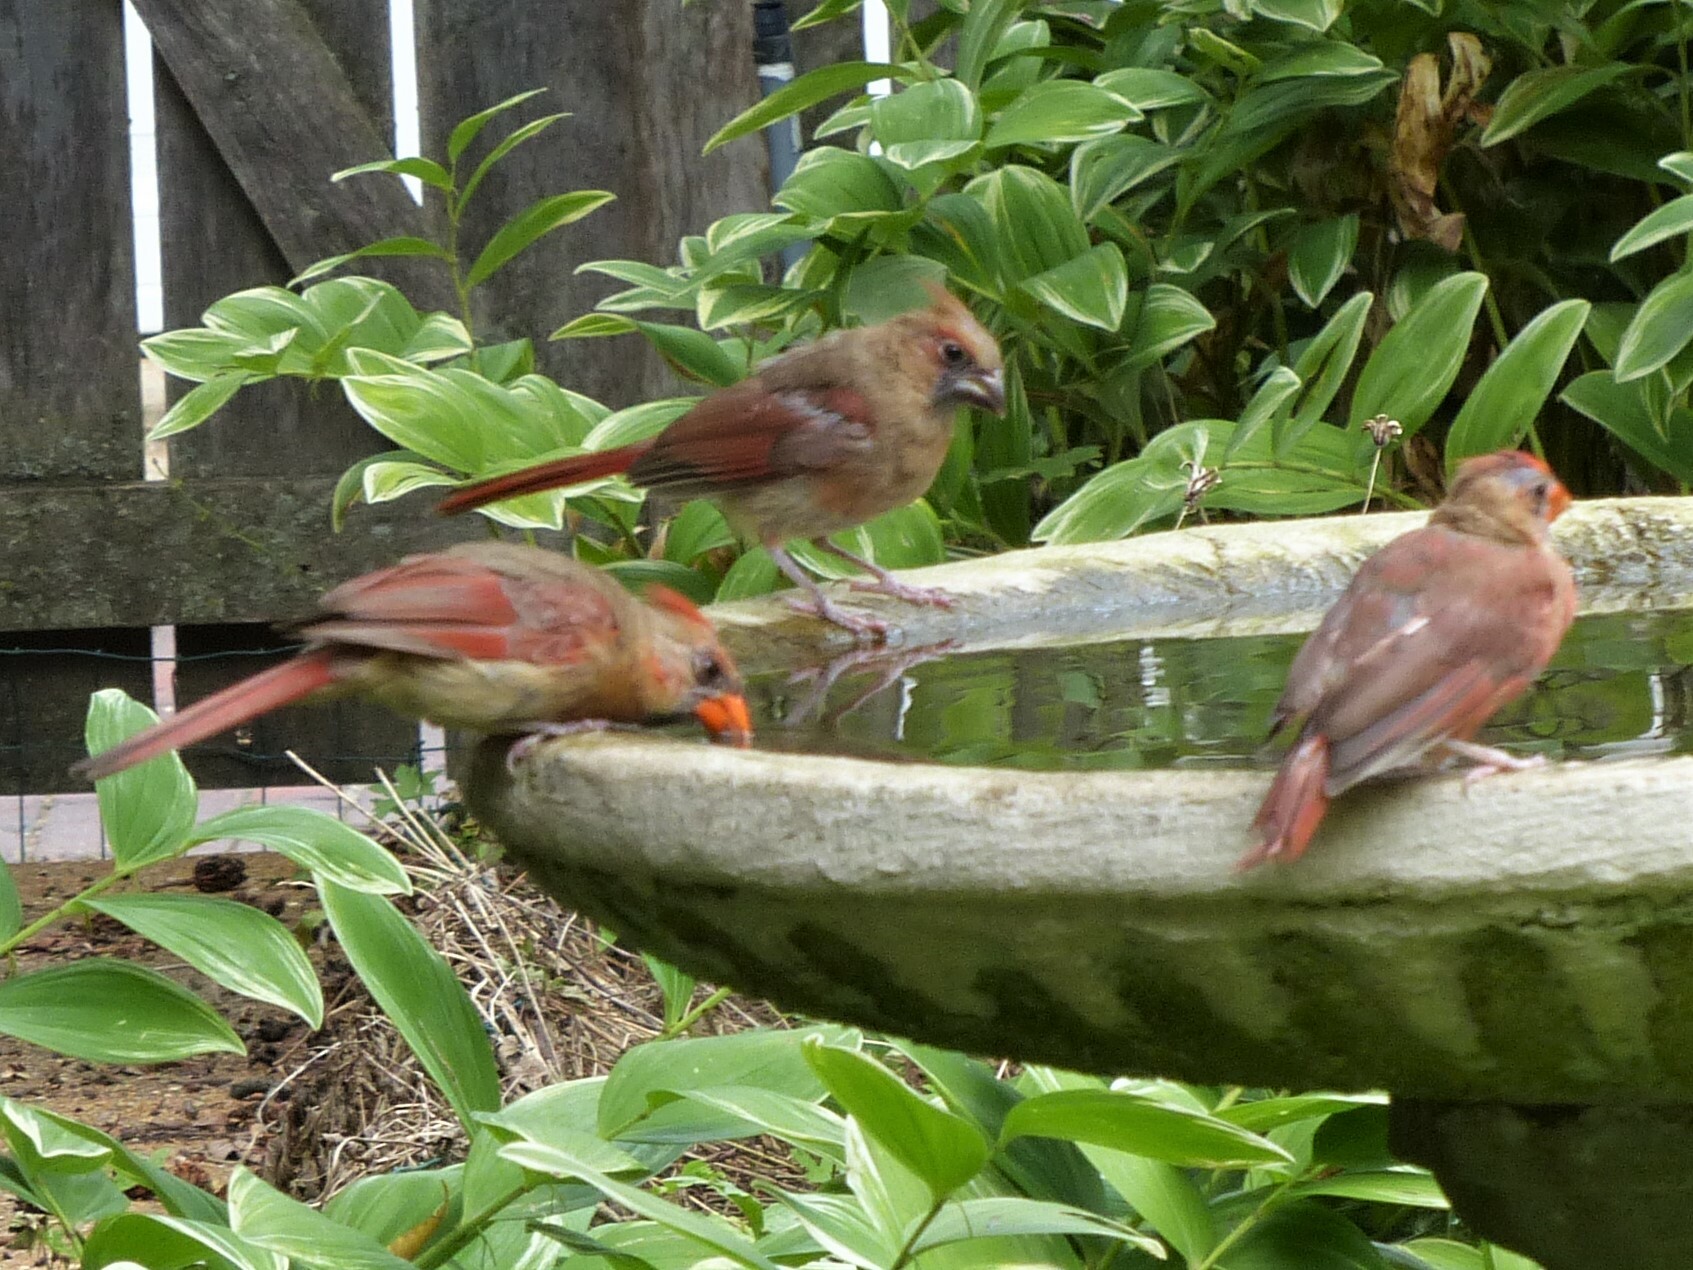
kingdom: Animalia
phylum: Chordata
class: Aves
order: Passeriformes
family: Cardinalidae
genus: Cardinalis
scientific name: Cardinalis cardinalis
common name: Northern cardinal
